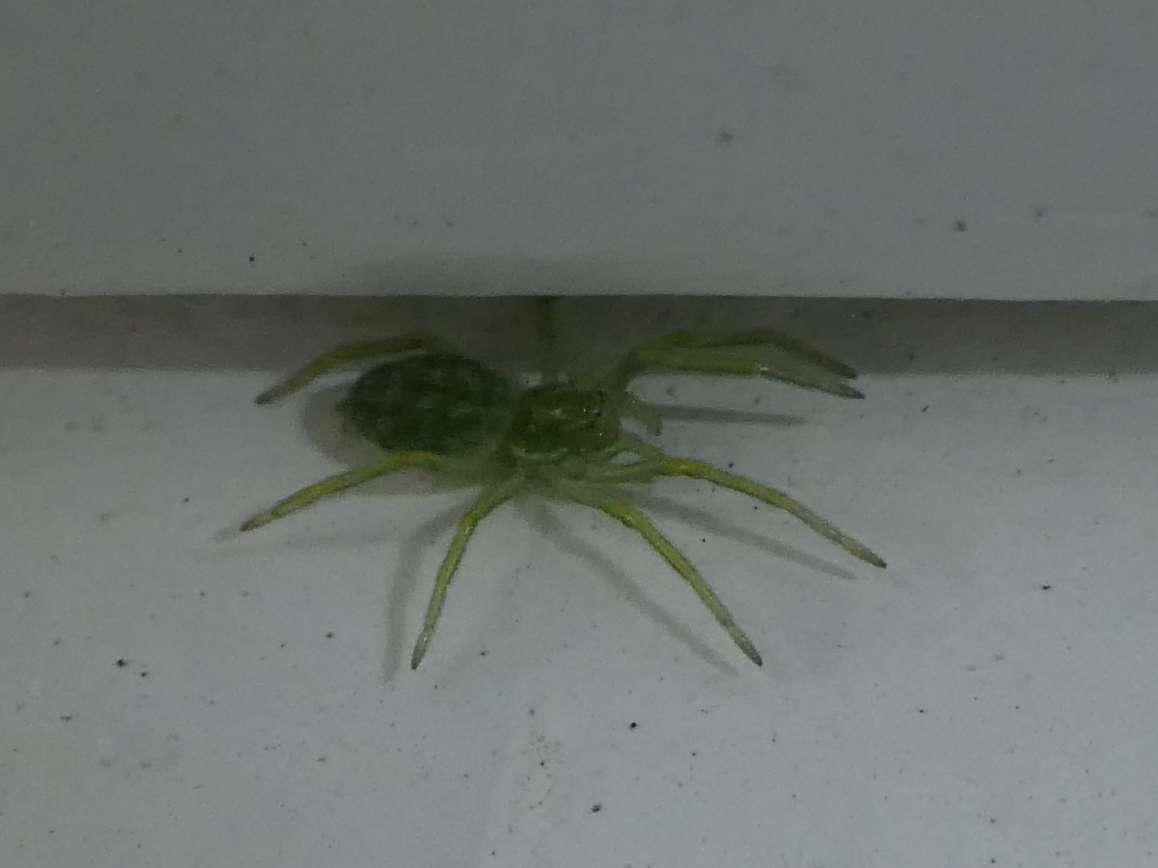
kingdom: Animalia
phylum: Arthropoda
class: Arachnida
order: Araneae
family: Dictynidae
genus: Nigma
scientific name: Nigma walckenaeri
